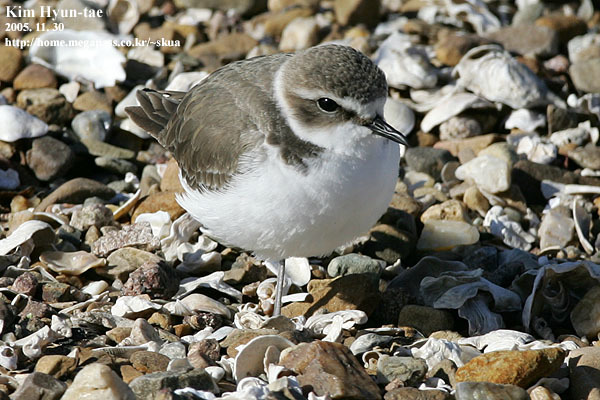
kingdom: Animalia
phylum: Chordata
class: Aves
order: Charadriiformes
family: Charadriidae
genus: Charadrius
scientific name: Charadrius alexandrinus
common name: Kentish plover
